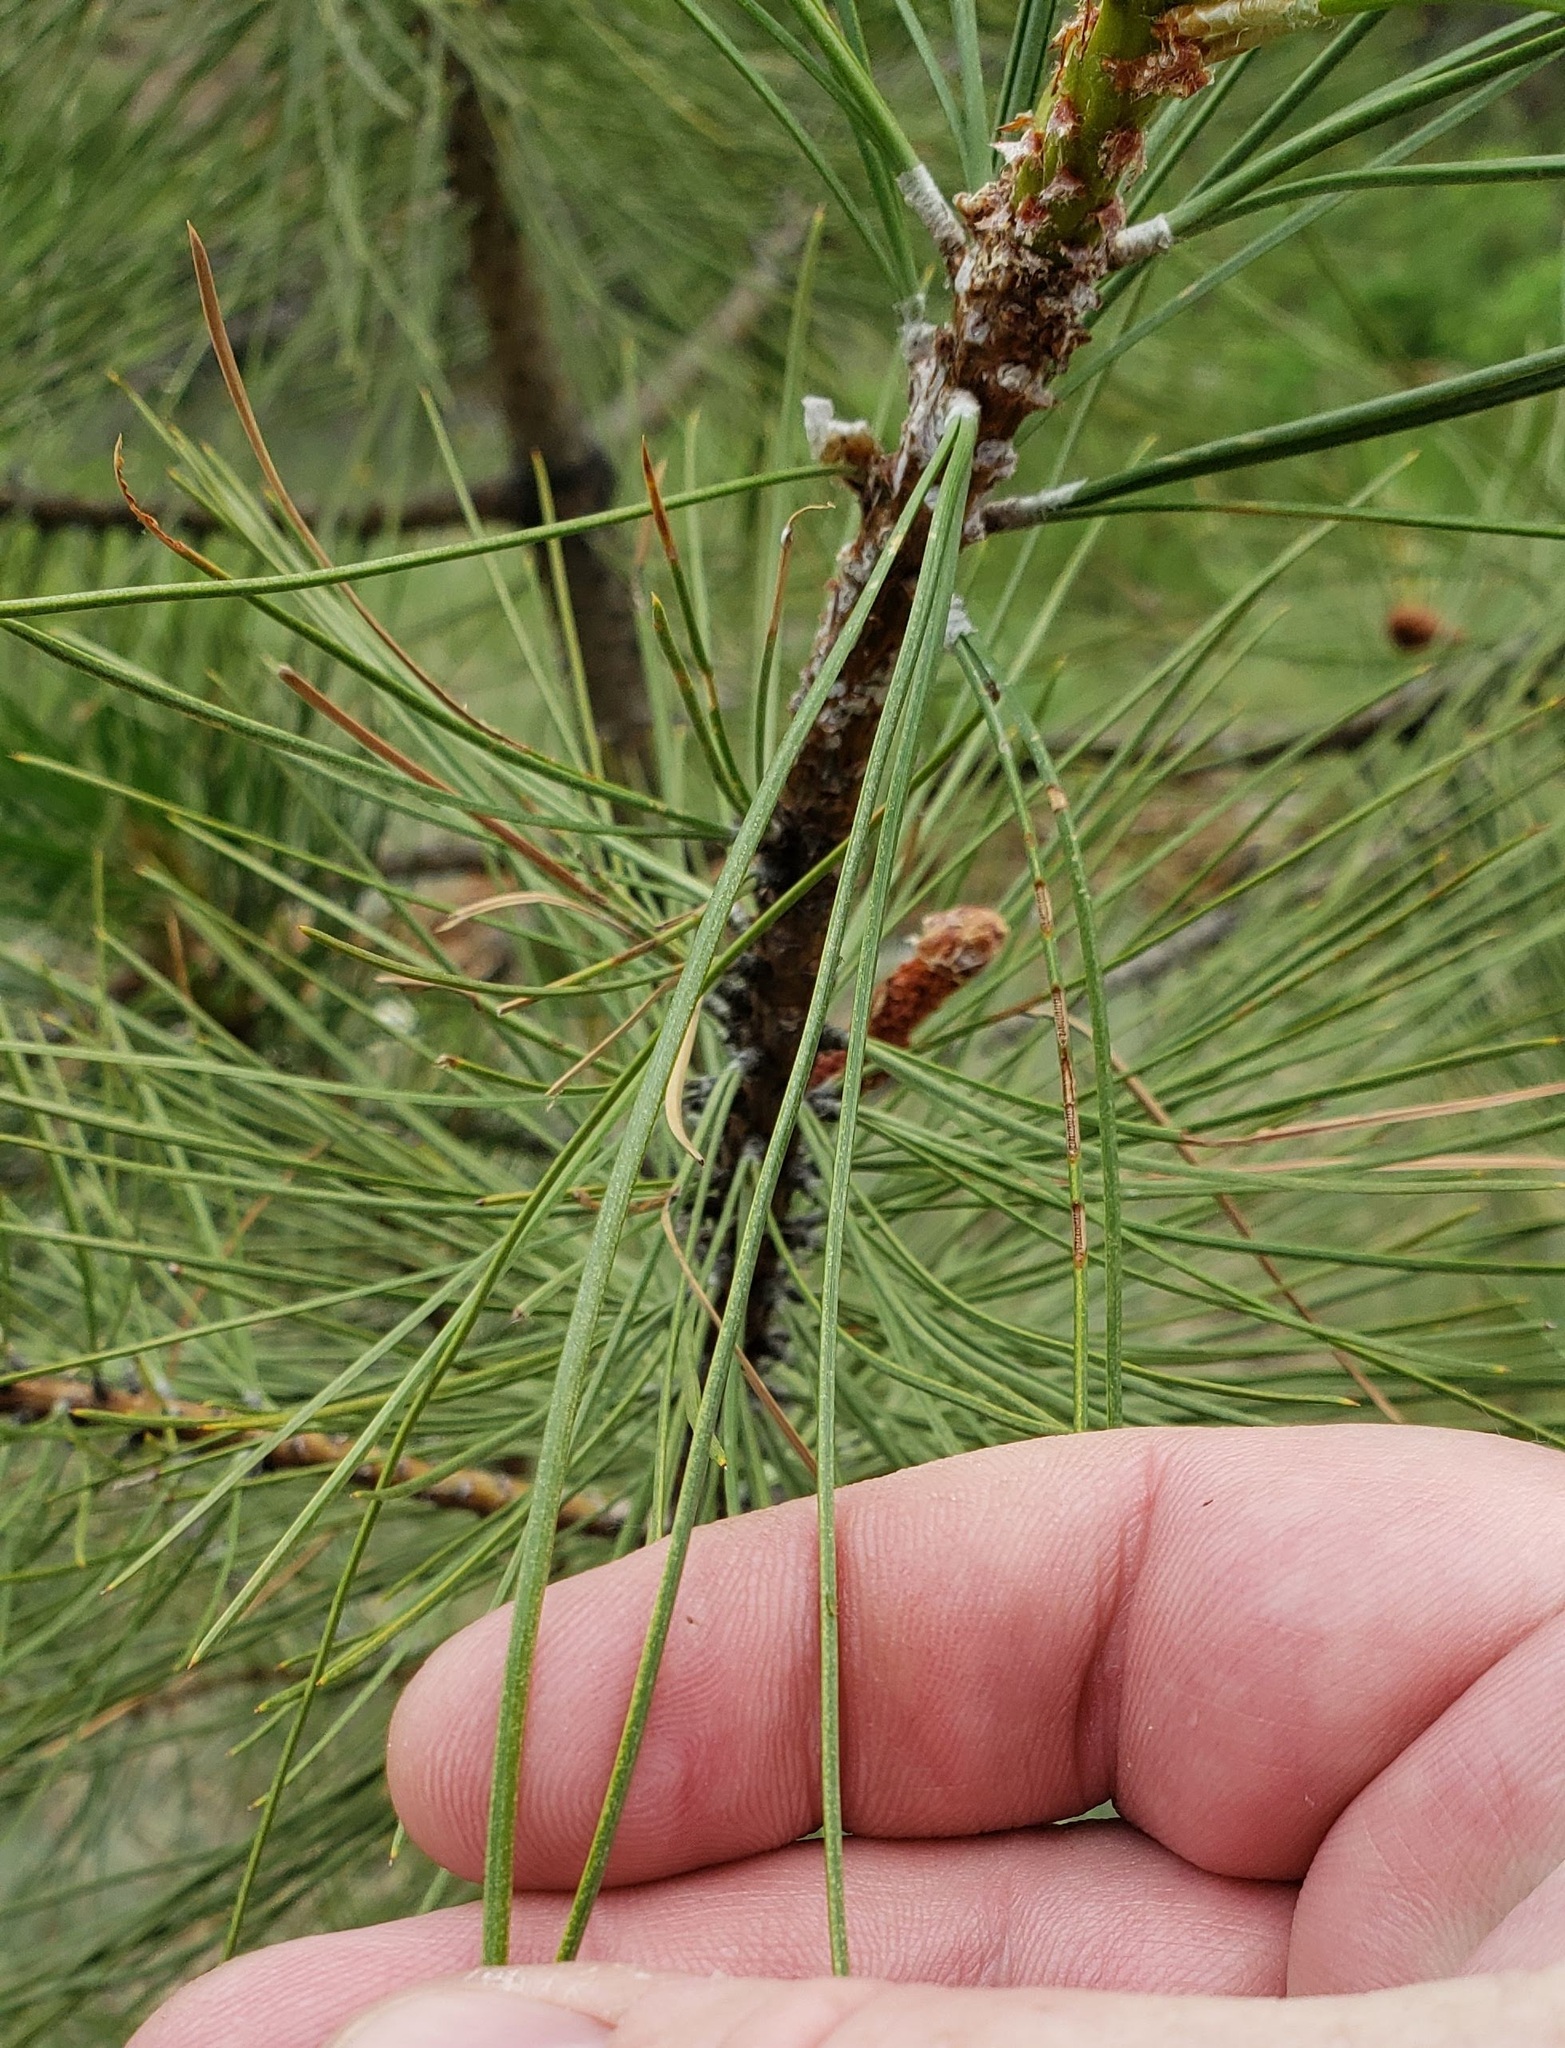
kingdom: Plantae
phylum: Tracheophyta
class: Pinopsida
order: Pinales
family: Pinaceae
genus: Pinus
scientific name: Pinus ponderosa
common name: Western yellow-pine
